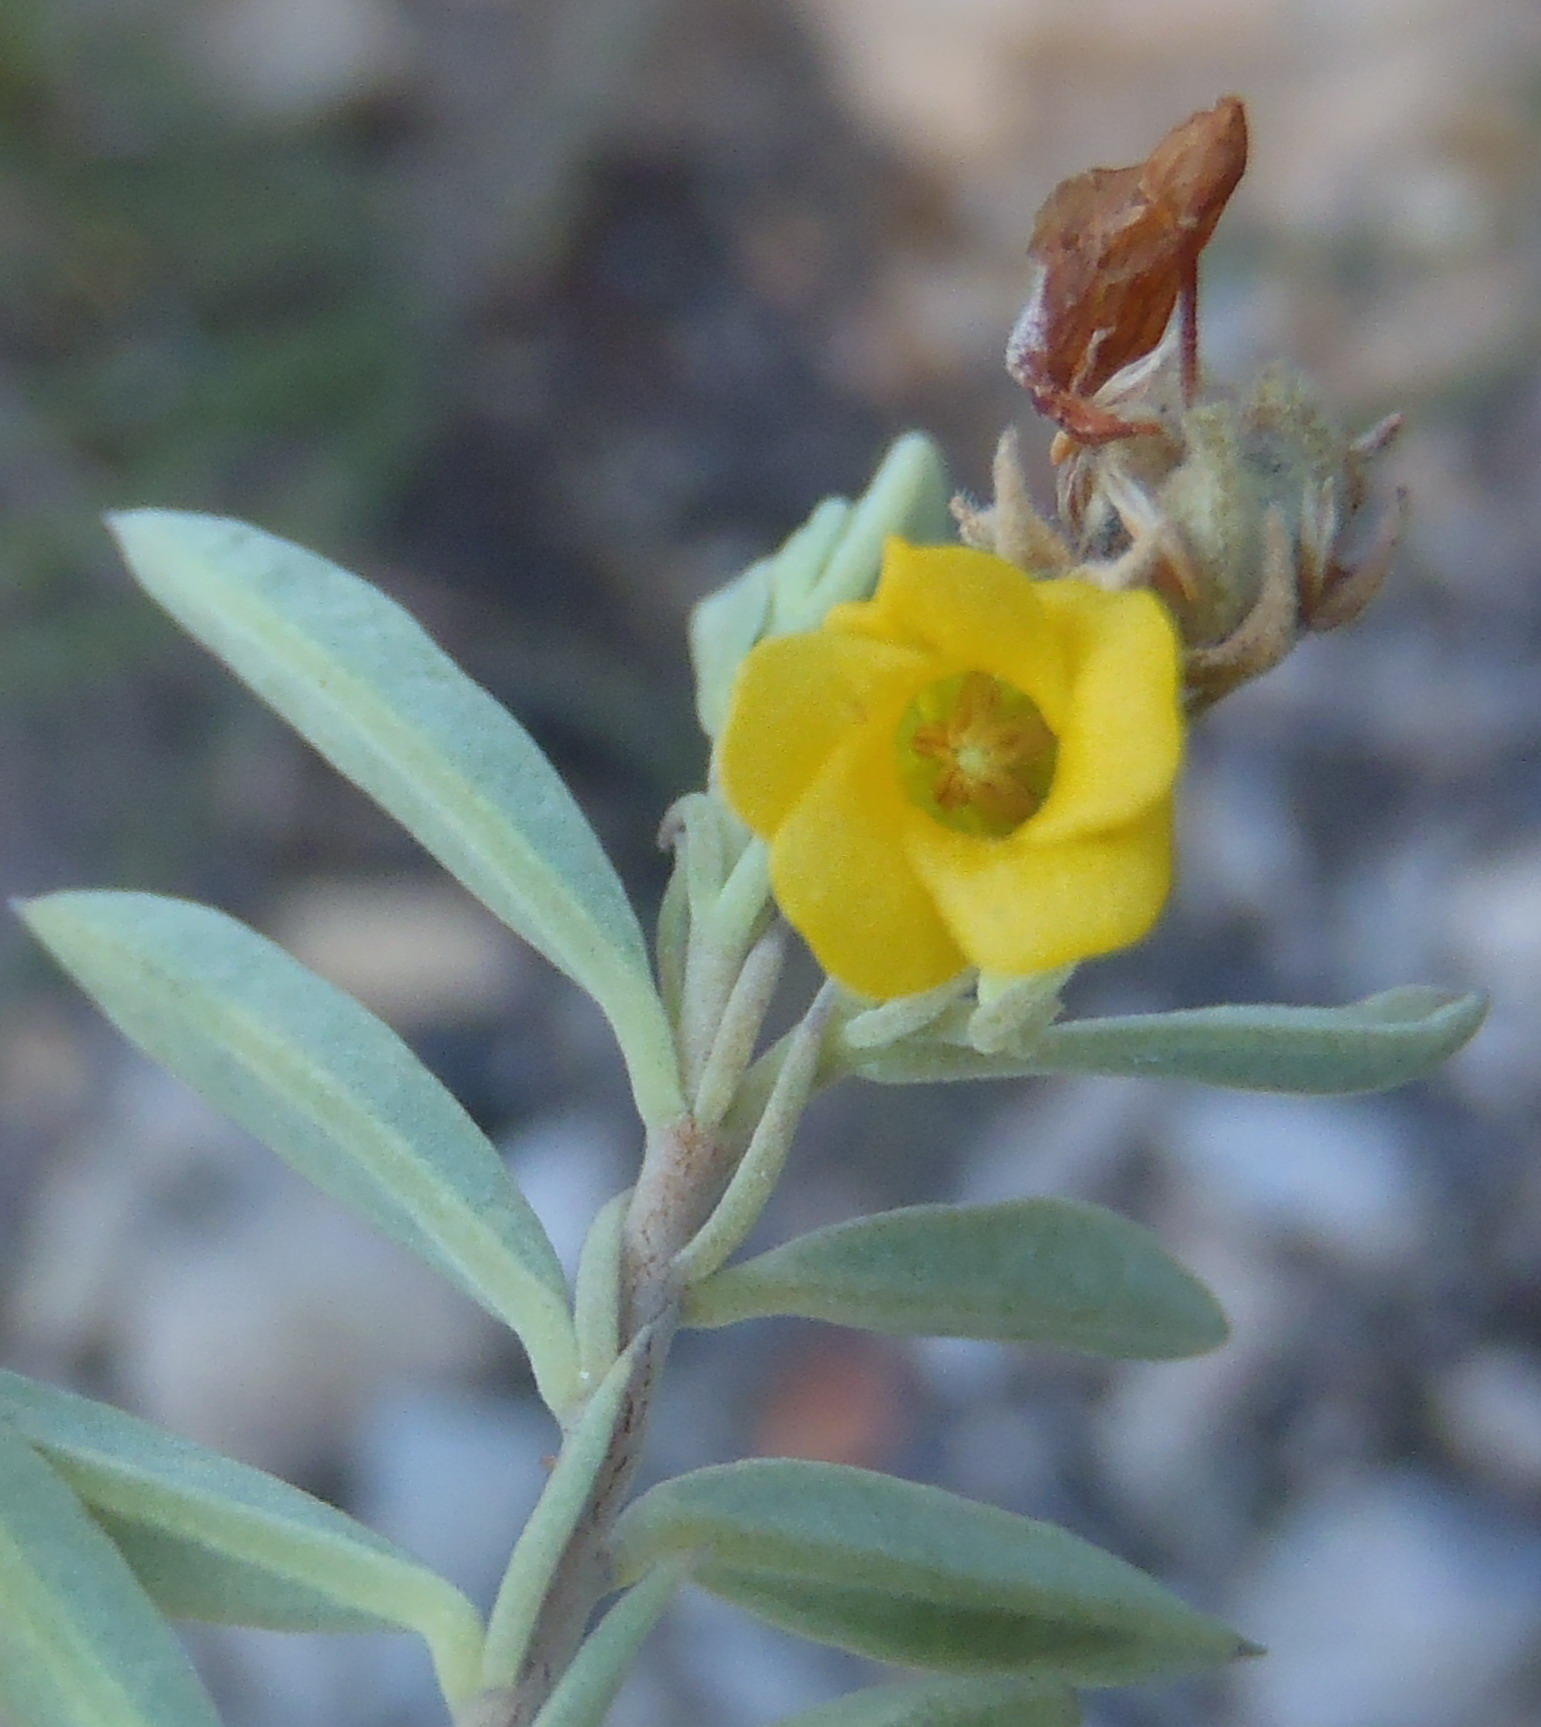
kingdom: Plantae
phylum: Tracheophyta
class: Magnoliopsida
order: Malvales
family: Malvaceae
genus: Hermannia
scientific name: Hermannia velutina
